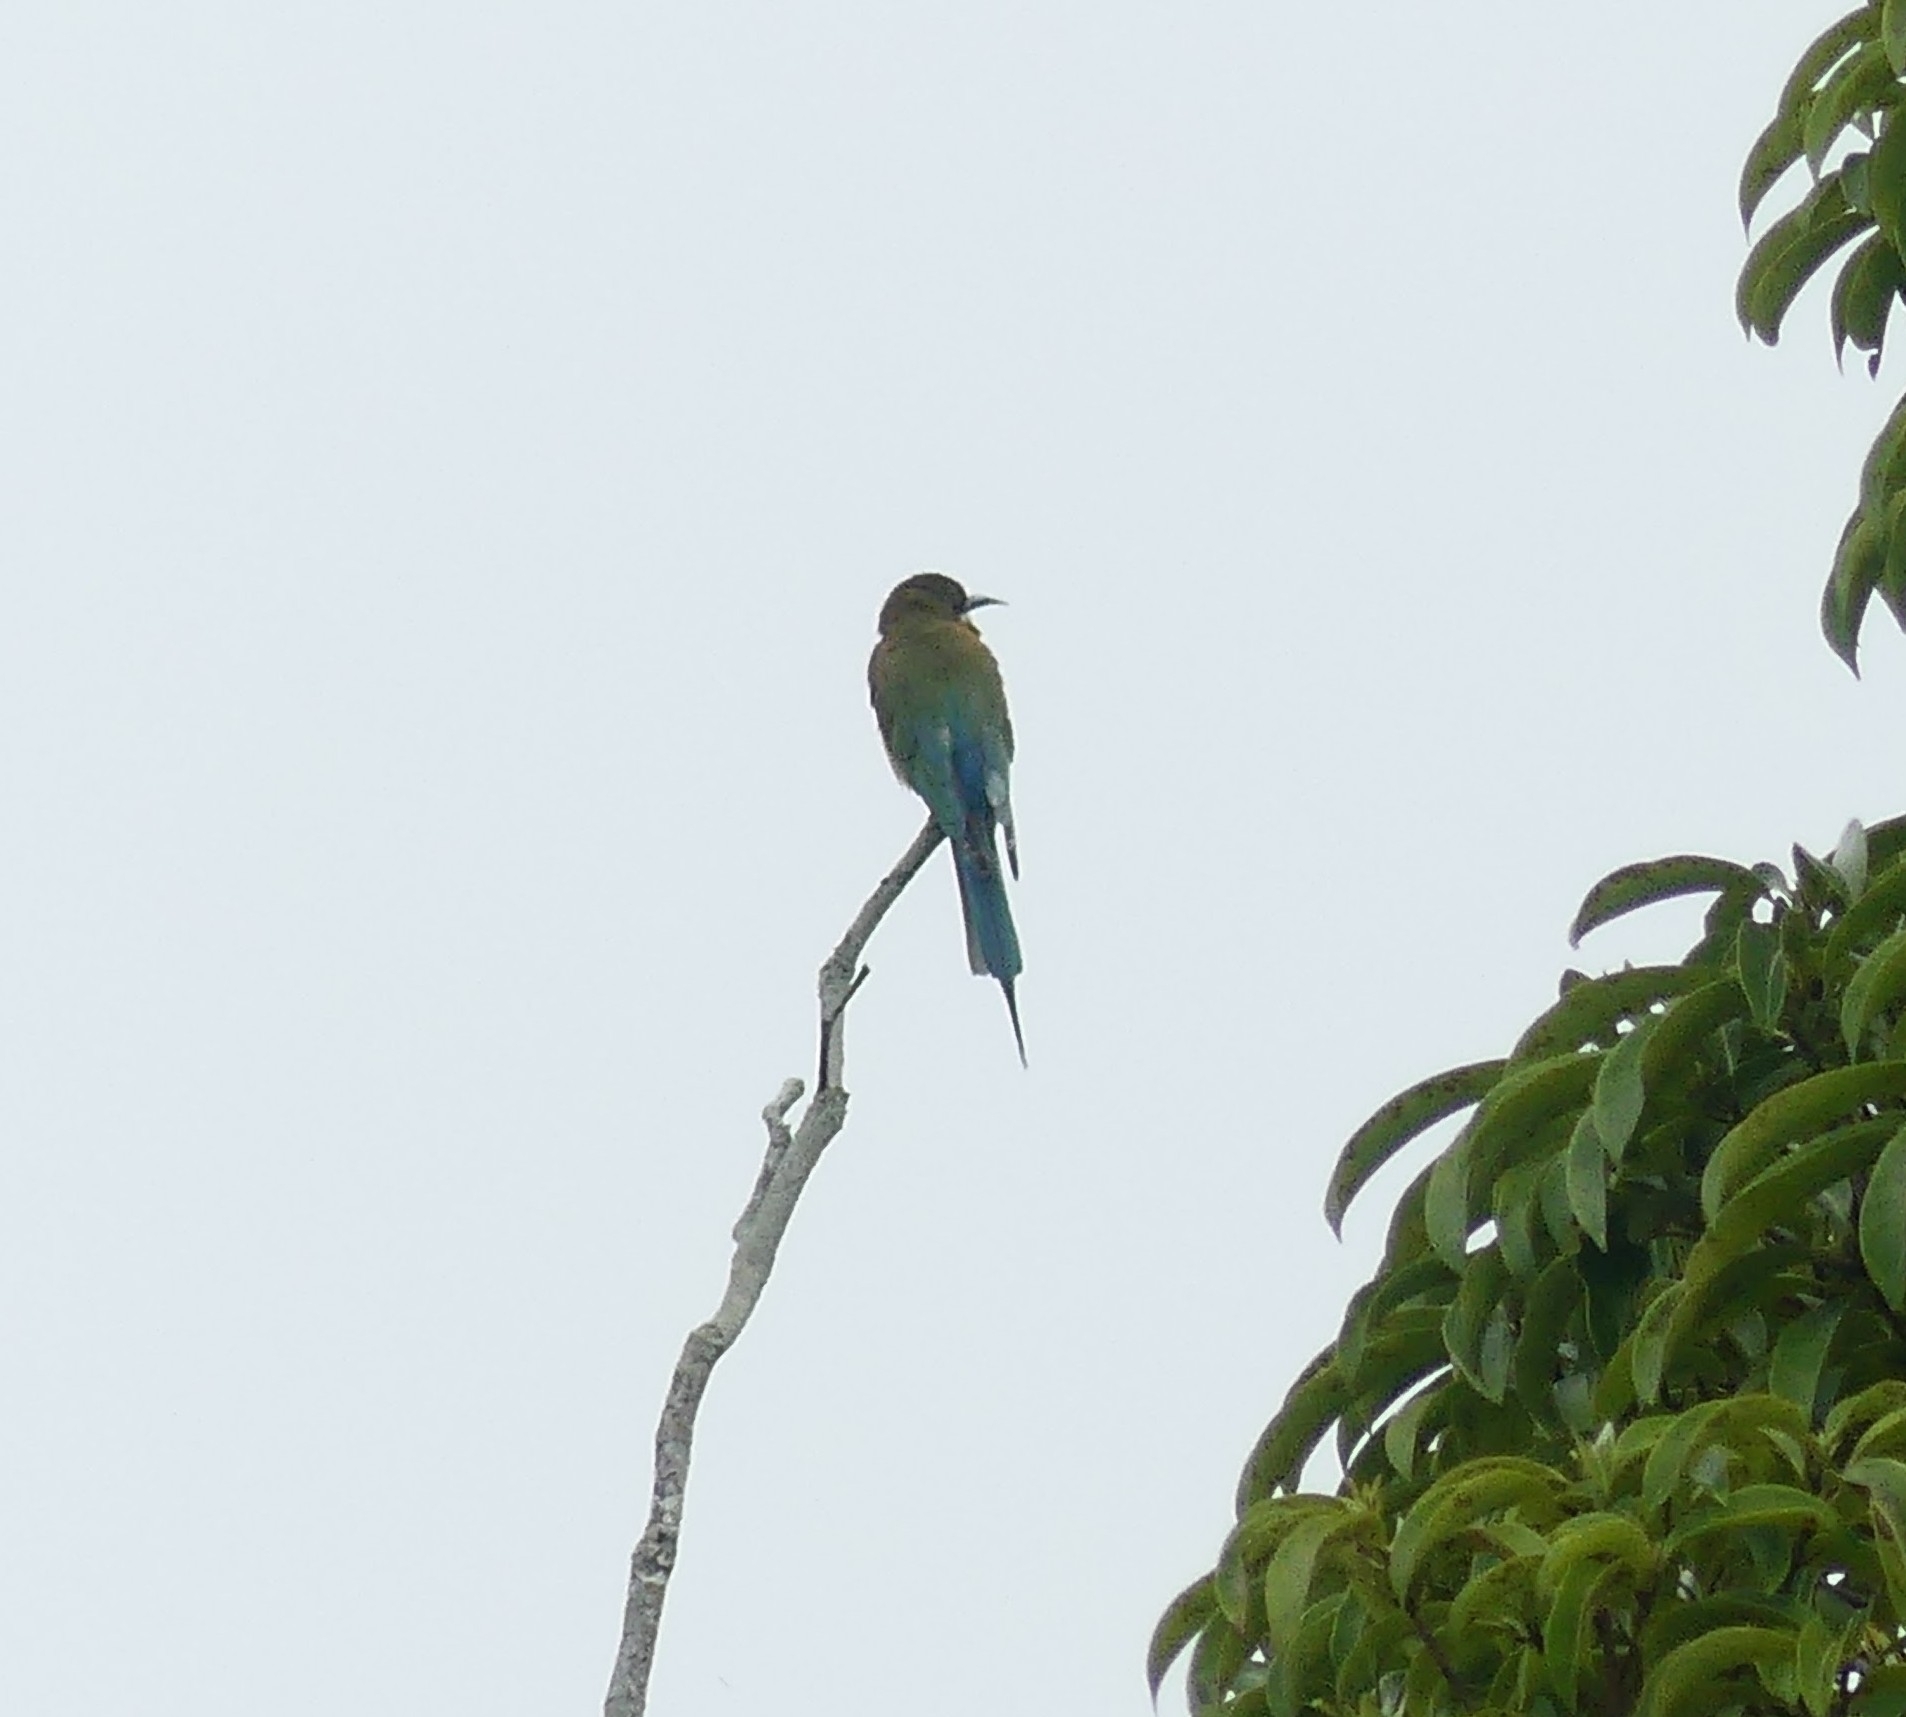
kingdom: Animalia
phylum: Chordata
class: Aves
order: Coraciiformes
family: Meropidae
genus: Merops
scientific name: Merops philippinus
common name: Blue-tailed bee-eater
